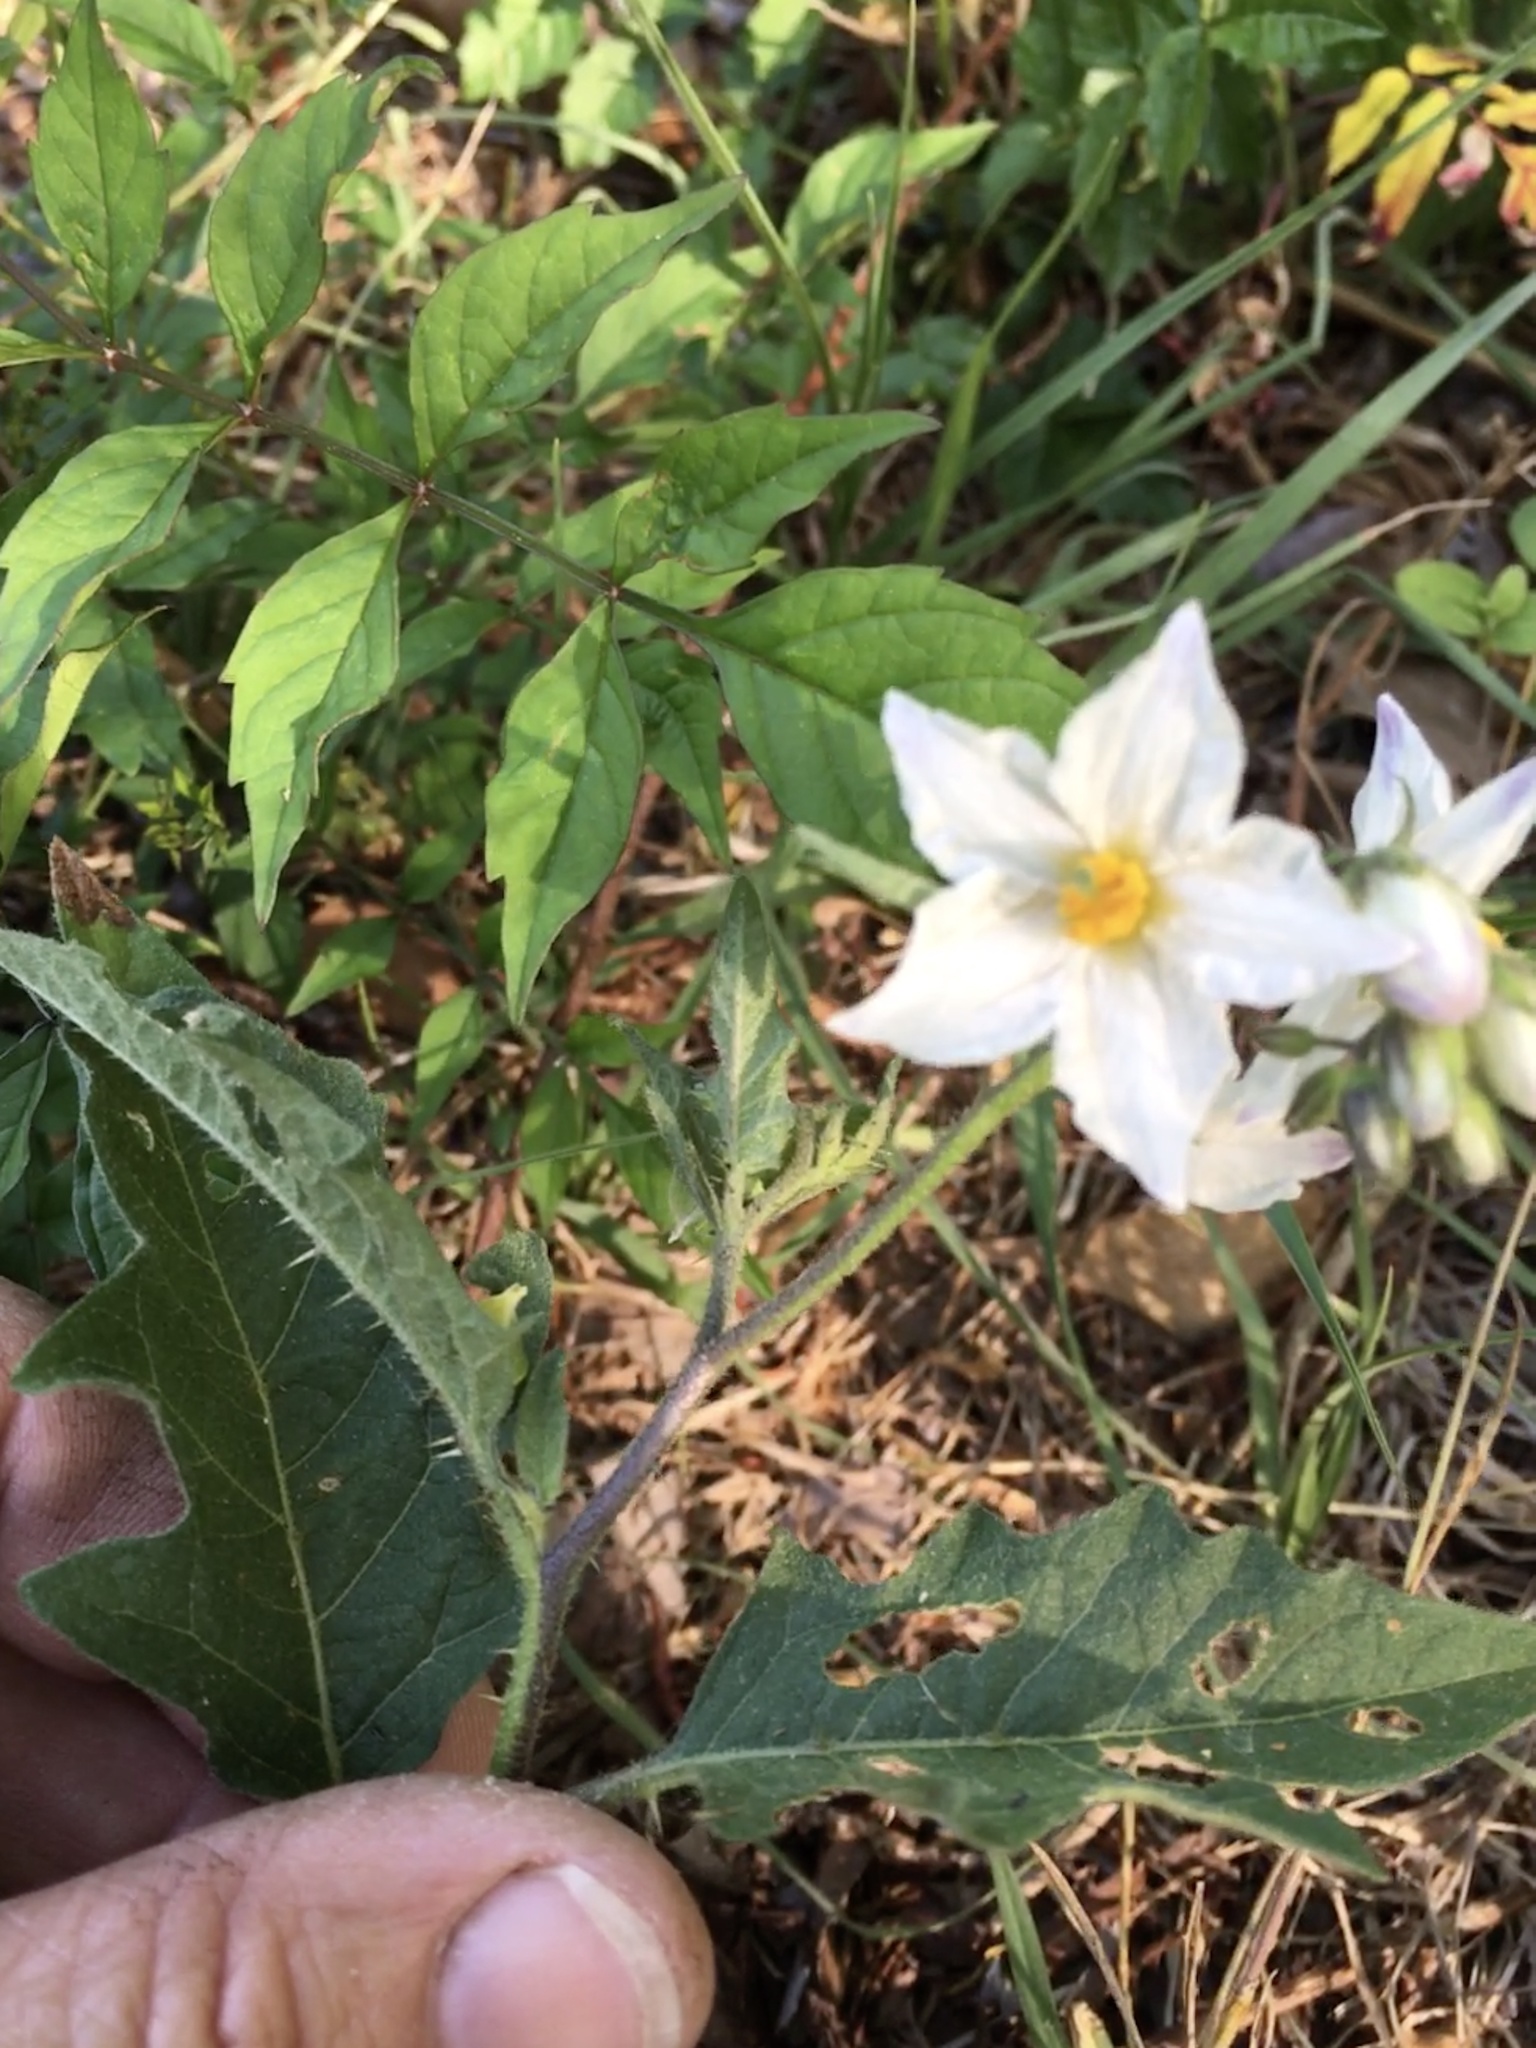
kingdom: Plantae
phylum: Tracheophyta
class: Magnoliopsida
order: Solanales
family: Solanaceae
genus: Solanum
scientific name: Solanum carolinense
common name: Horse-nettle
